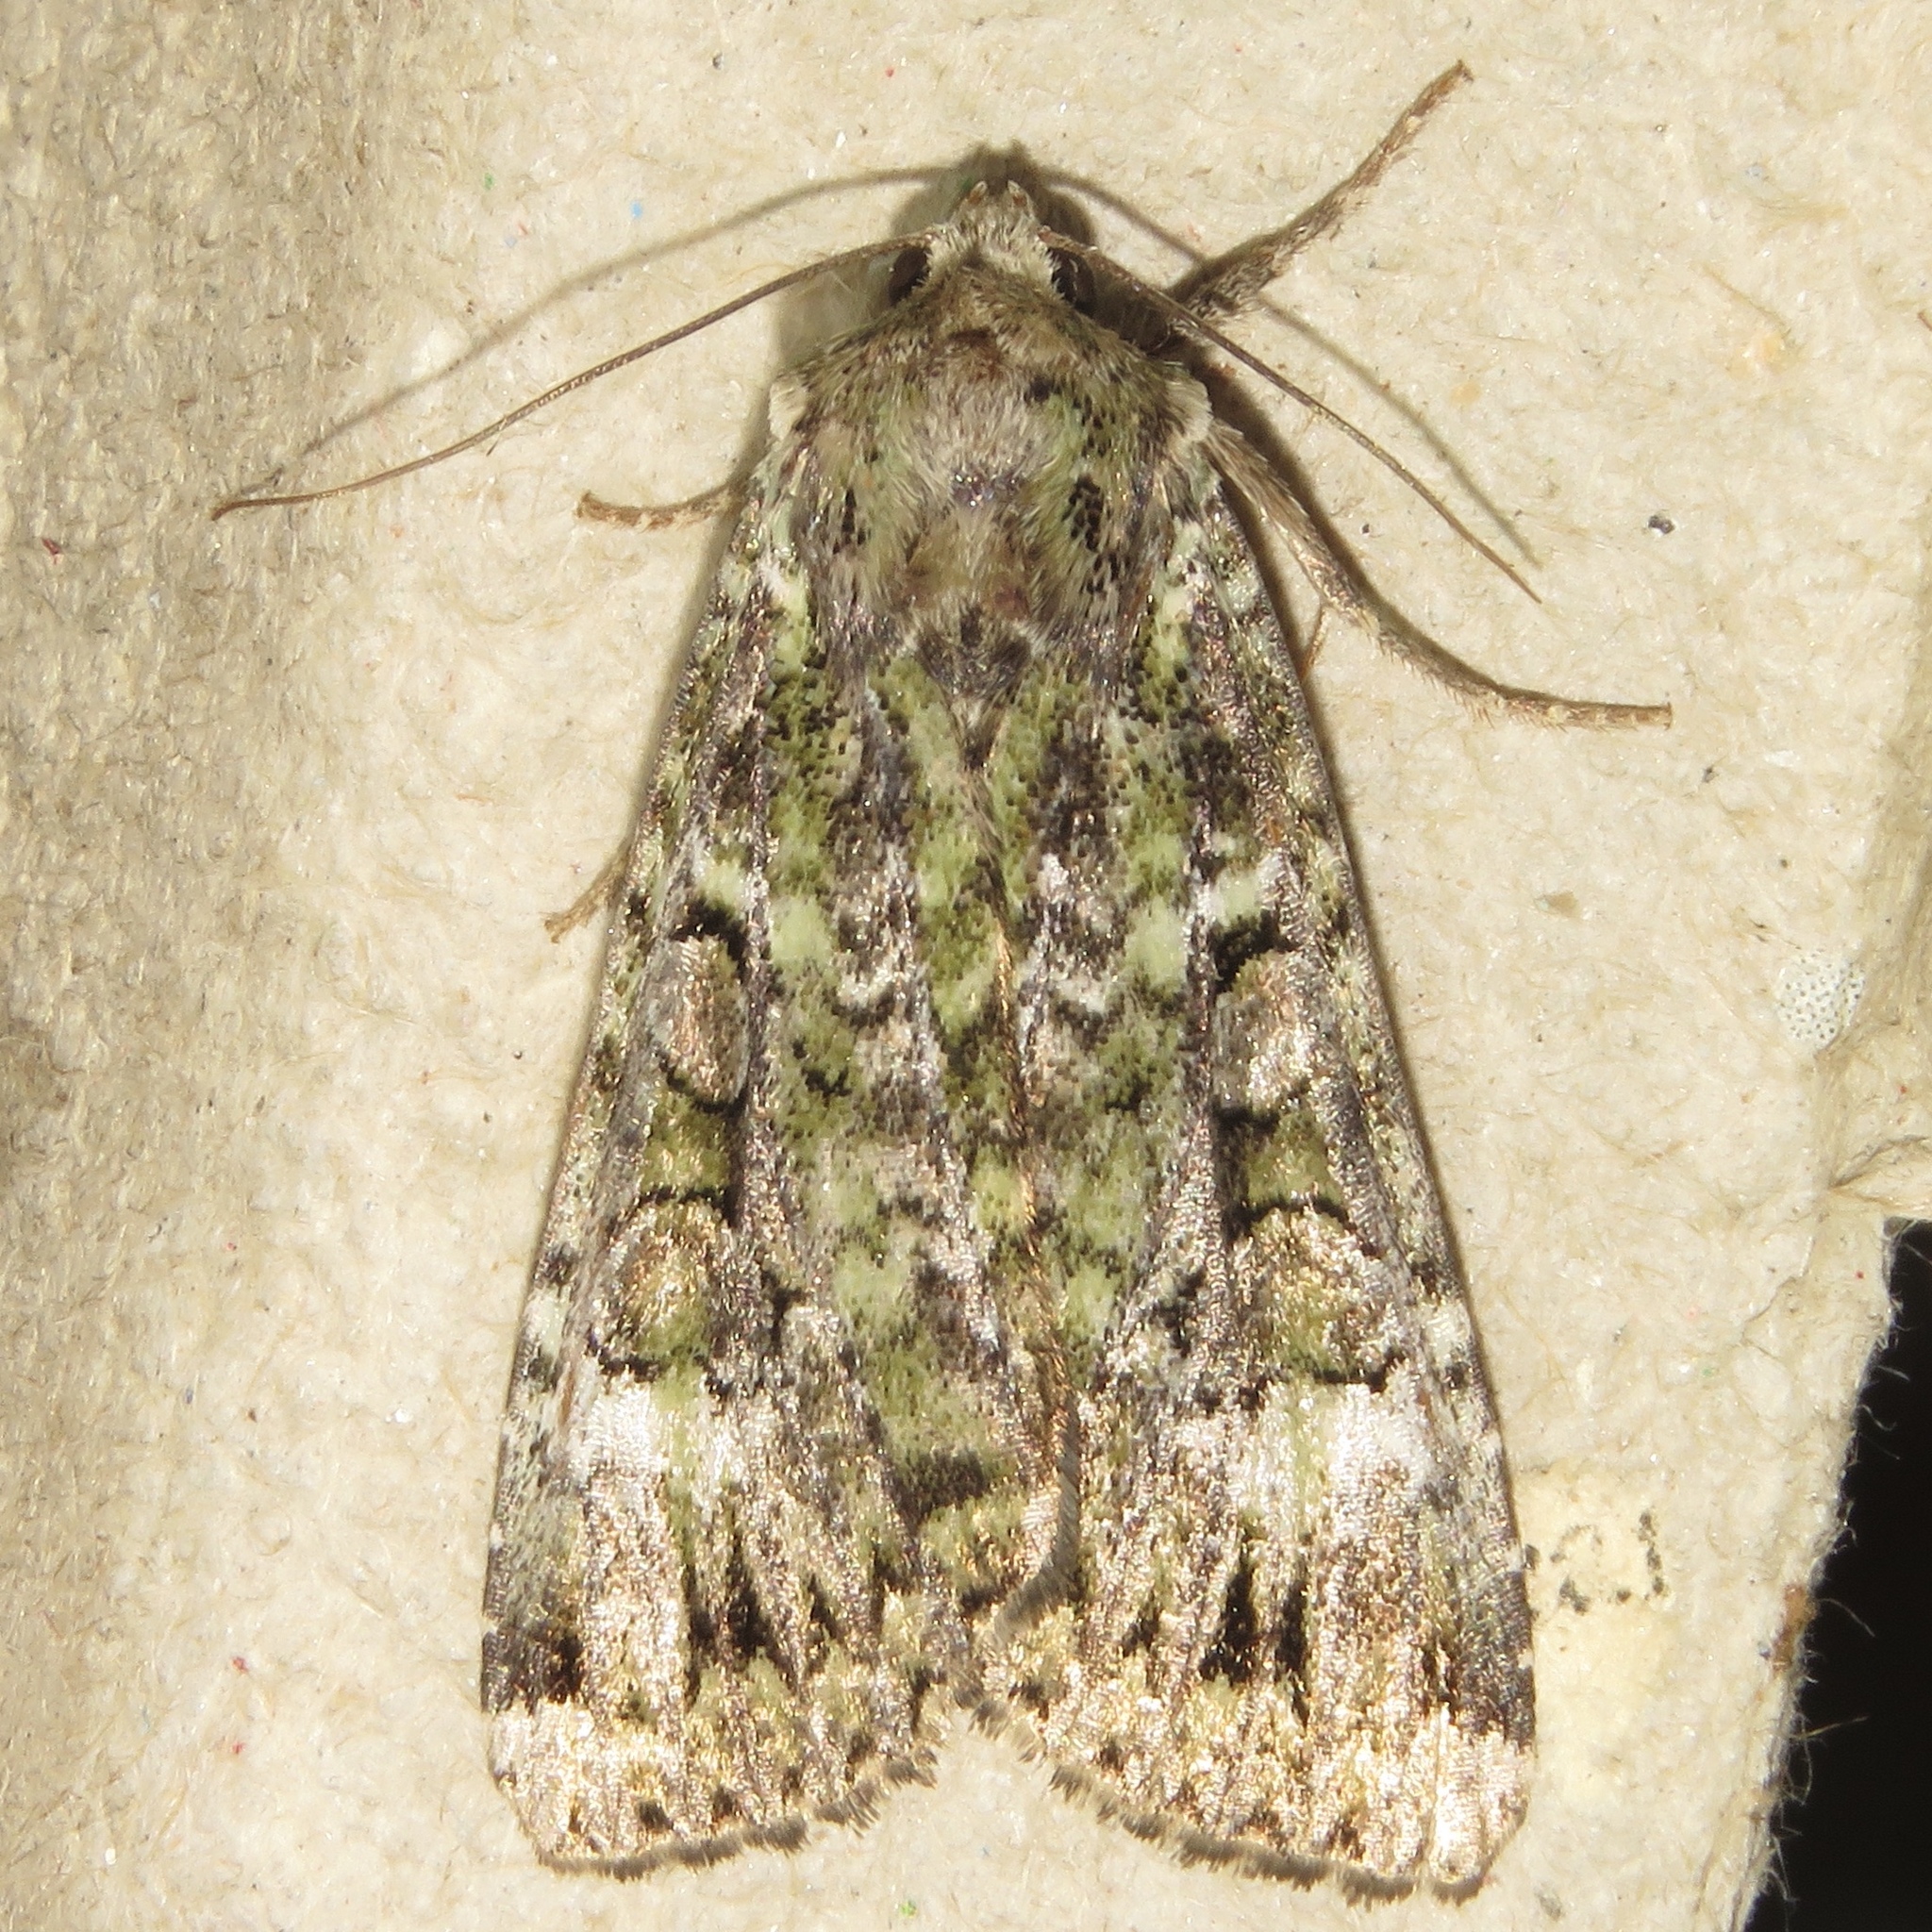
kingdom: Animalia
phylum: Arthropoda
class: Insecta
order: Lepidoptera
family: Noctuidae
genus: Anaplectoides
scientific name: Anaplectoides prasina
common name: Green arches
